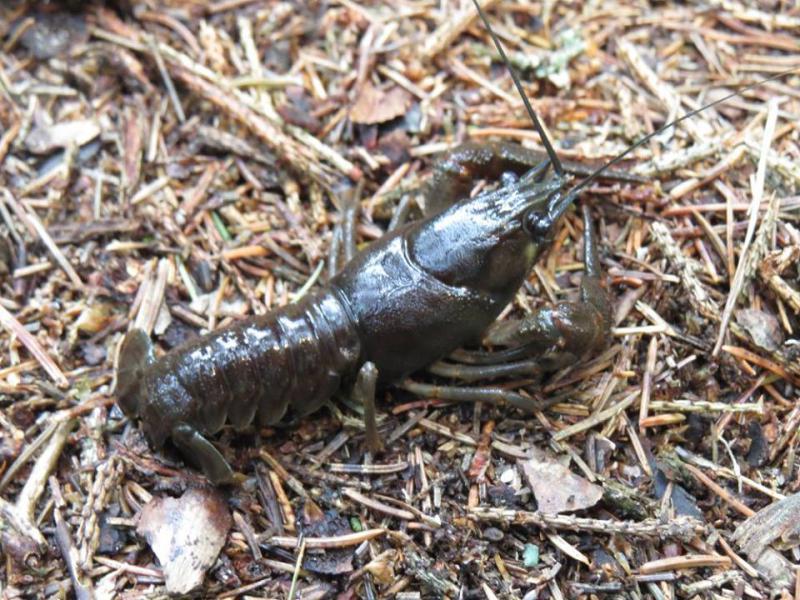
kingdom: Animalia
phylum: Arthropoda
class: Malacostraca
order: Decapoda
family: Astacidae
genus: Astacus
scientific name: Astacus astacus
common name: Noble crayfish
